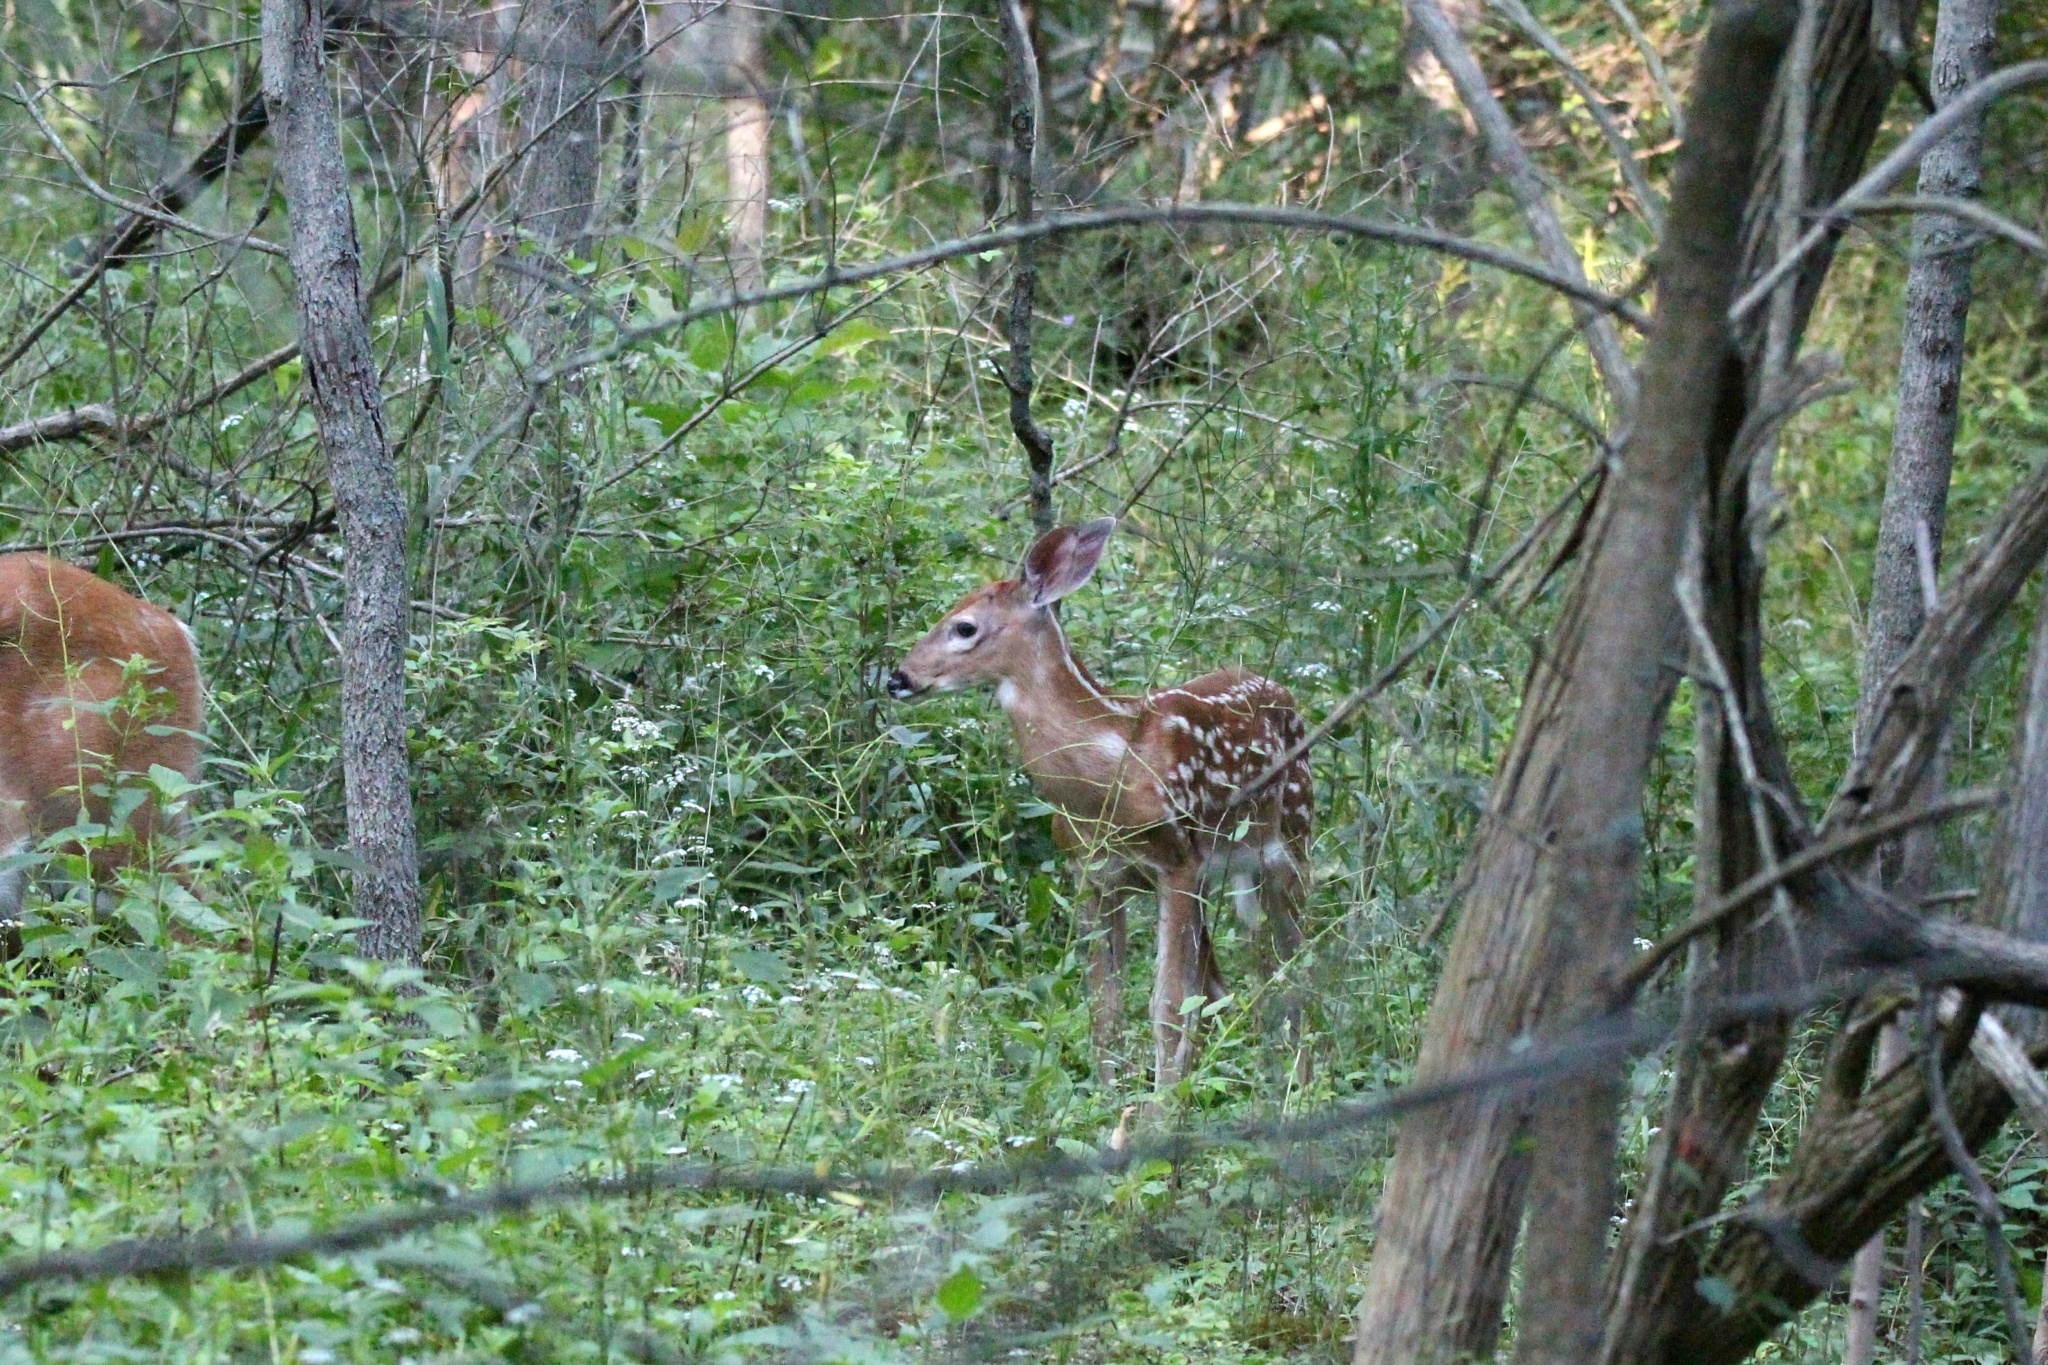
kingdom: Animalia
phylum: Chordata
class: Mammalia
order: Artiodactyla
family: Cervidae
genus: Odocoileus
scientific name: Odocoileus virginianus
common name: White-tailed deer
